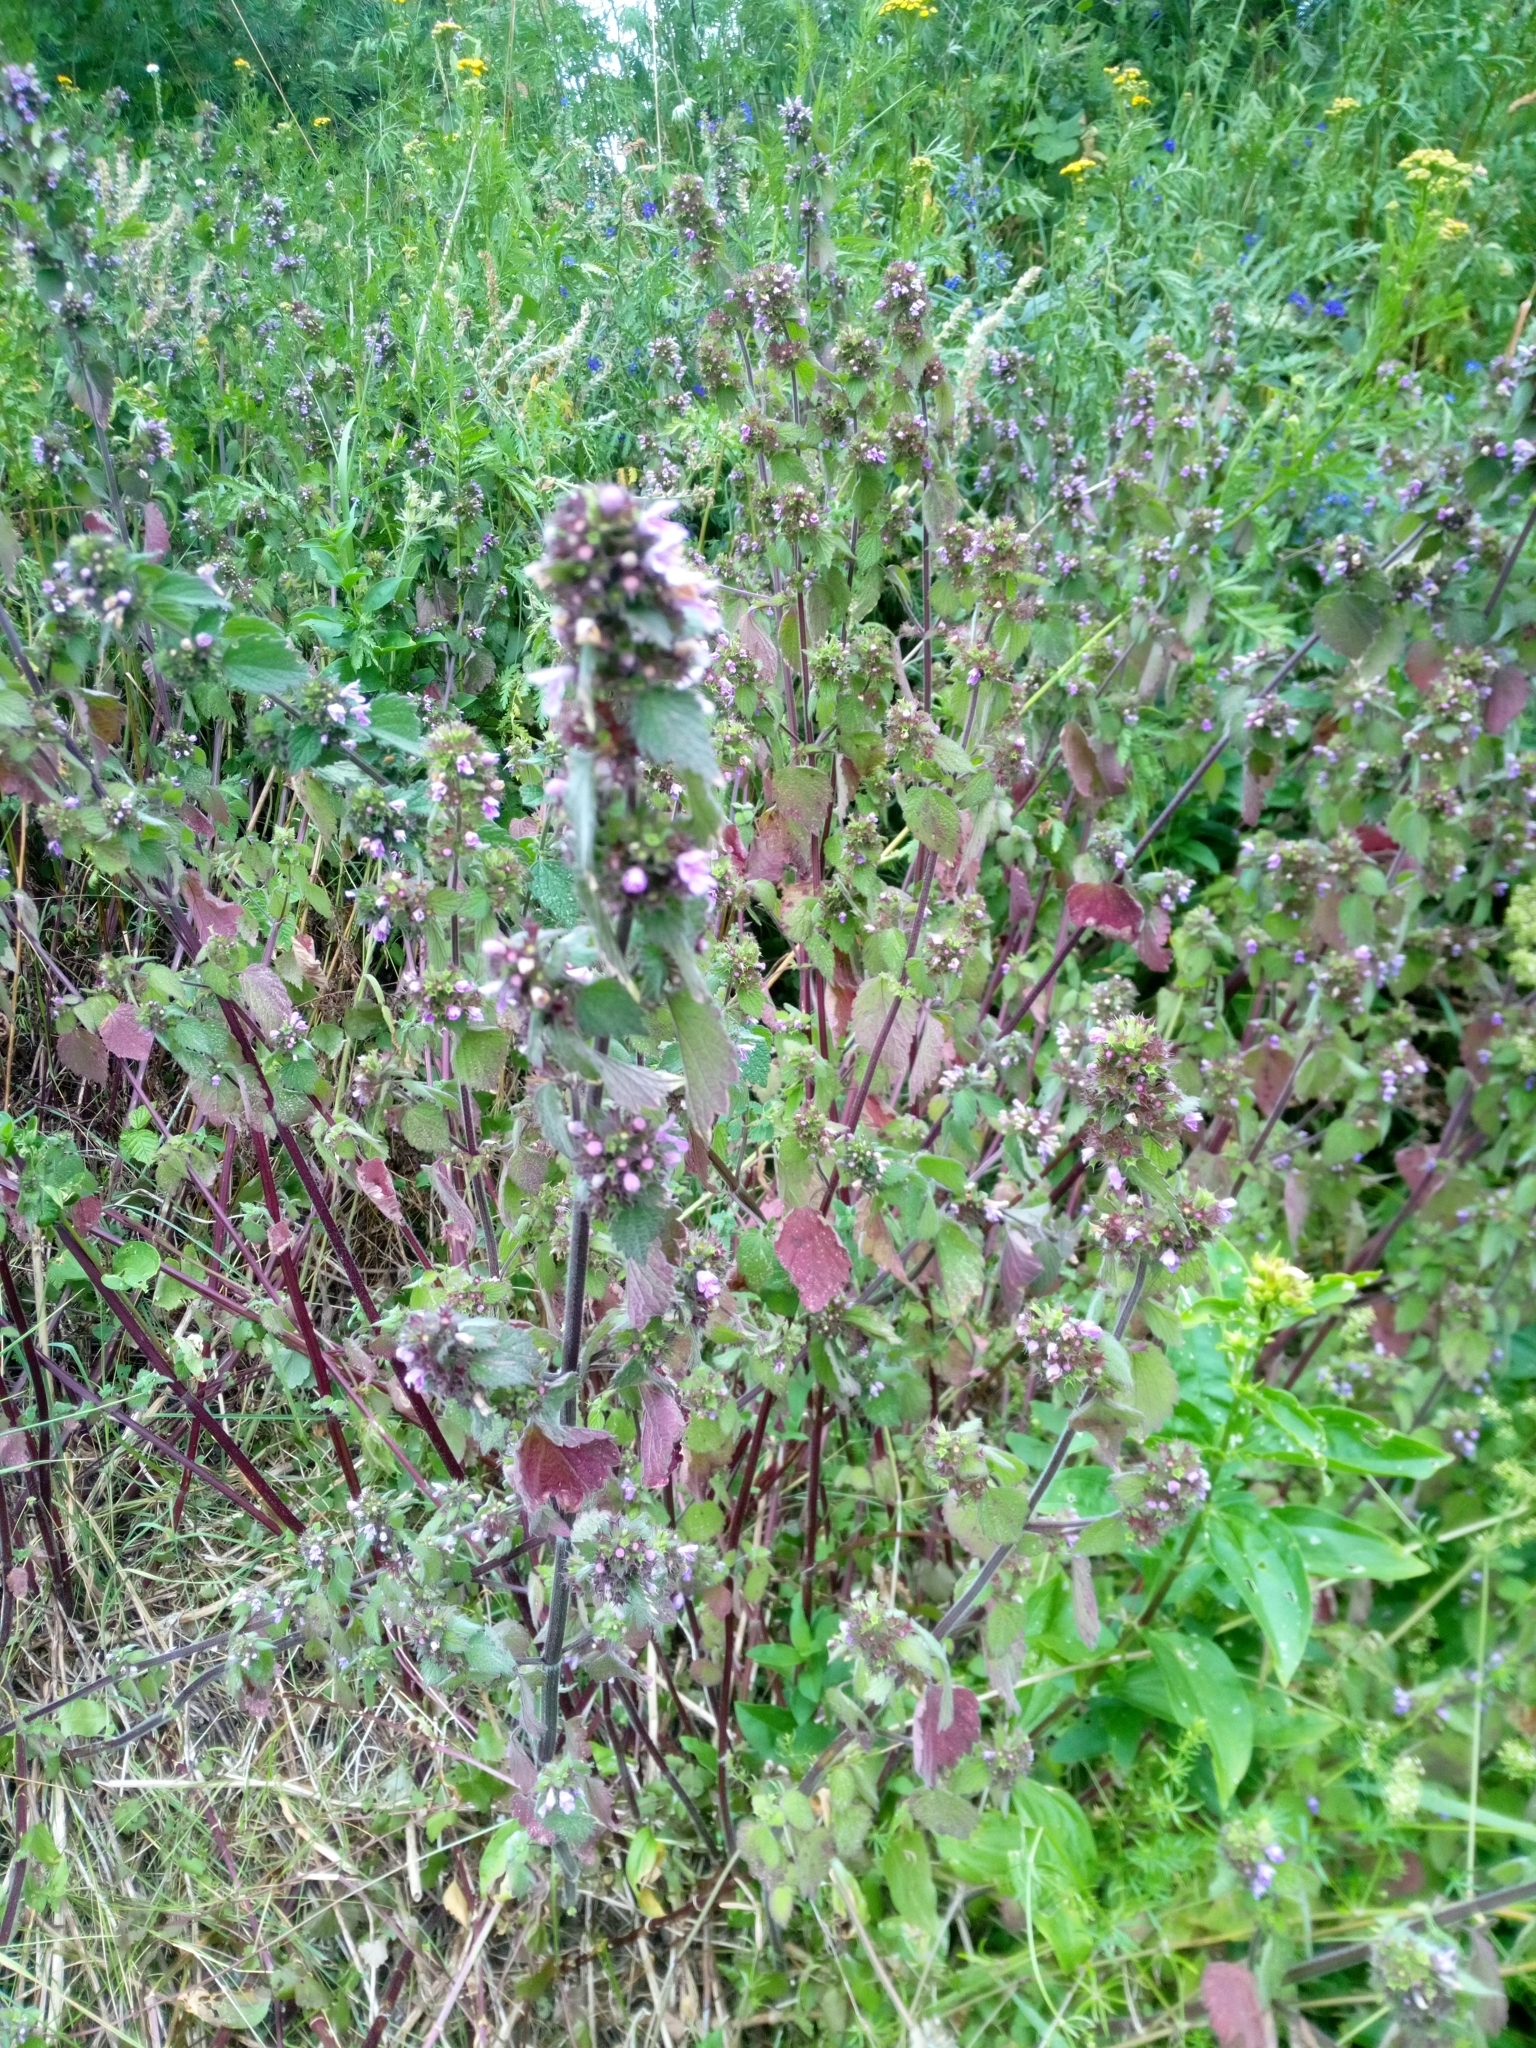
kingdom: Plantae
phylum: Tracheophyta
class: Magnoliopsida
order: Lamiales
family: Lamiaceae
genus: Ballota
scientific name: Ballota nigra
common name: Black horehound
